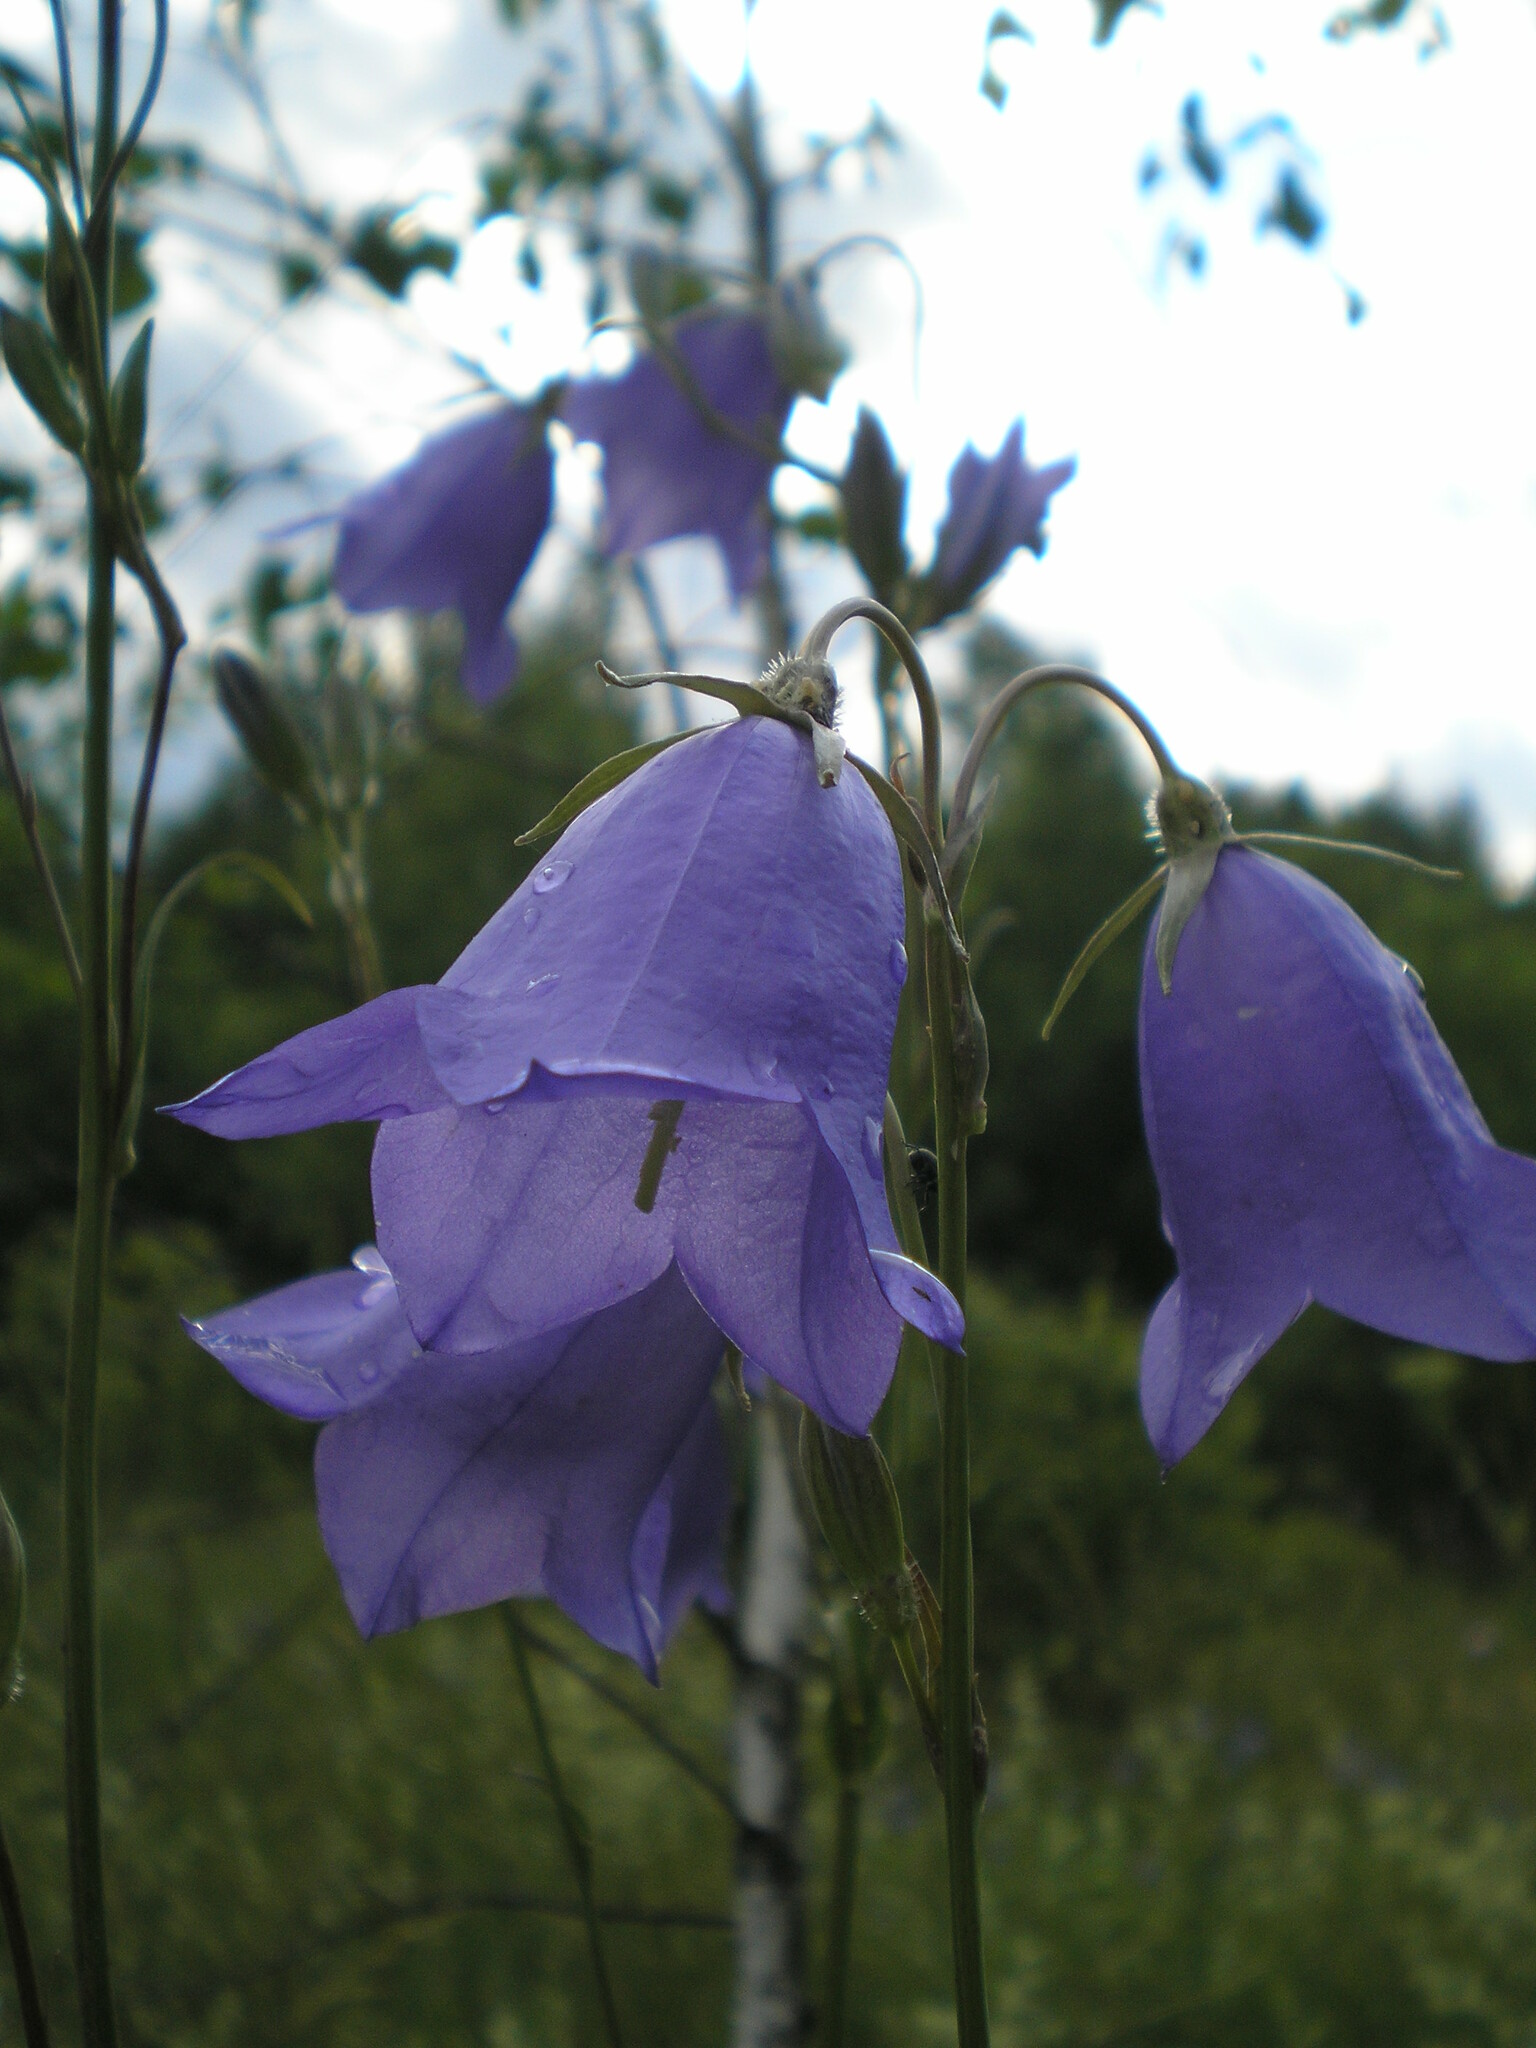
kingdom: Plantae
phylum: Tracheophyta
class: Magnoliopsida
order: Asterales
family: Campanulaceae
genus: Campanula
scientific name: Campanula persicifolia
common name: Peach-leaved bellflower
